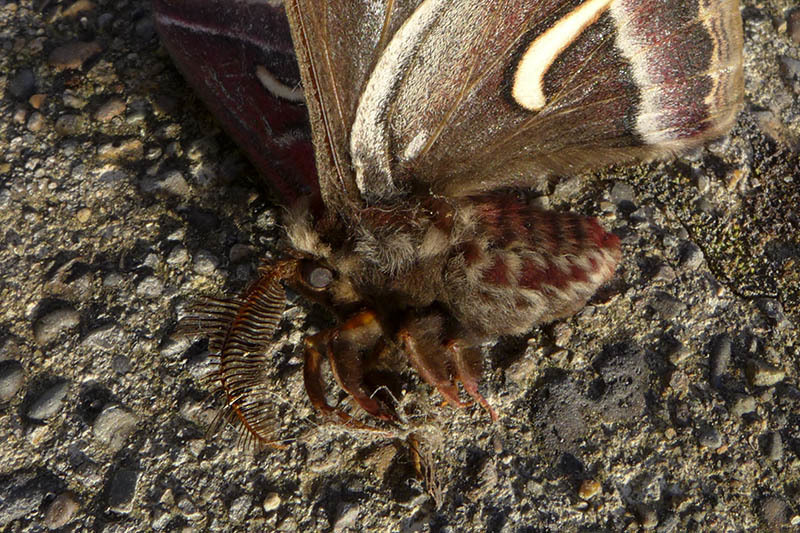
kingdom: Animalia
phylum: Arthropoda
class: Insecta
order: Lepidoptera
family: Saturniidae
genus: Hyalophora
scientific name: Hyalophora euryalus
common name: Ceanothus silkmoth
